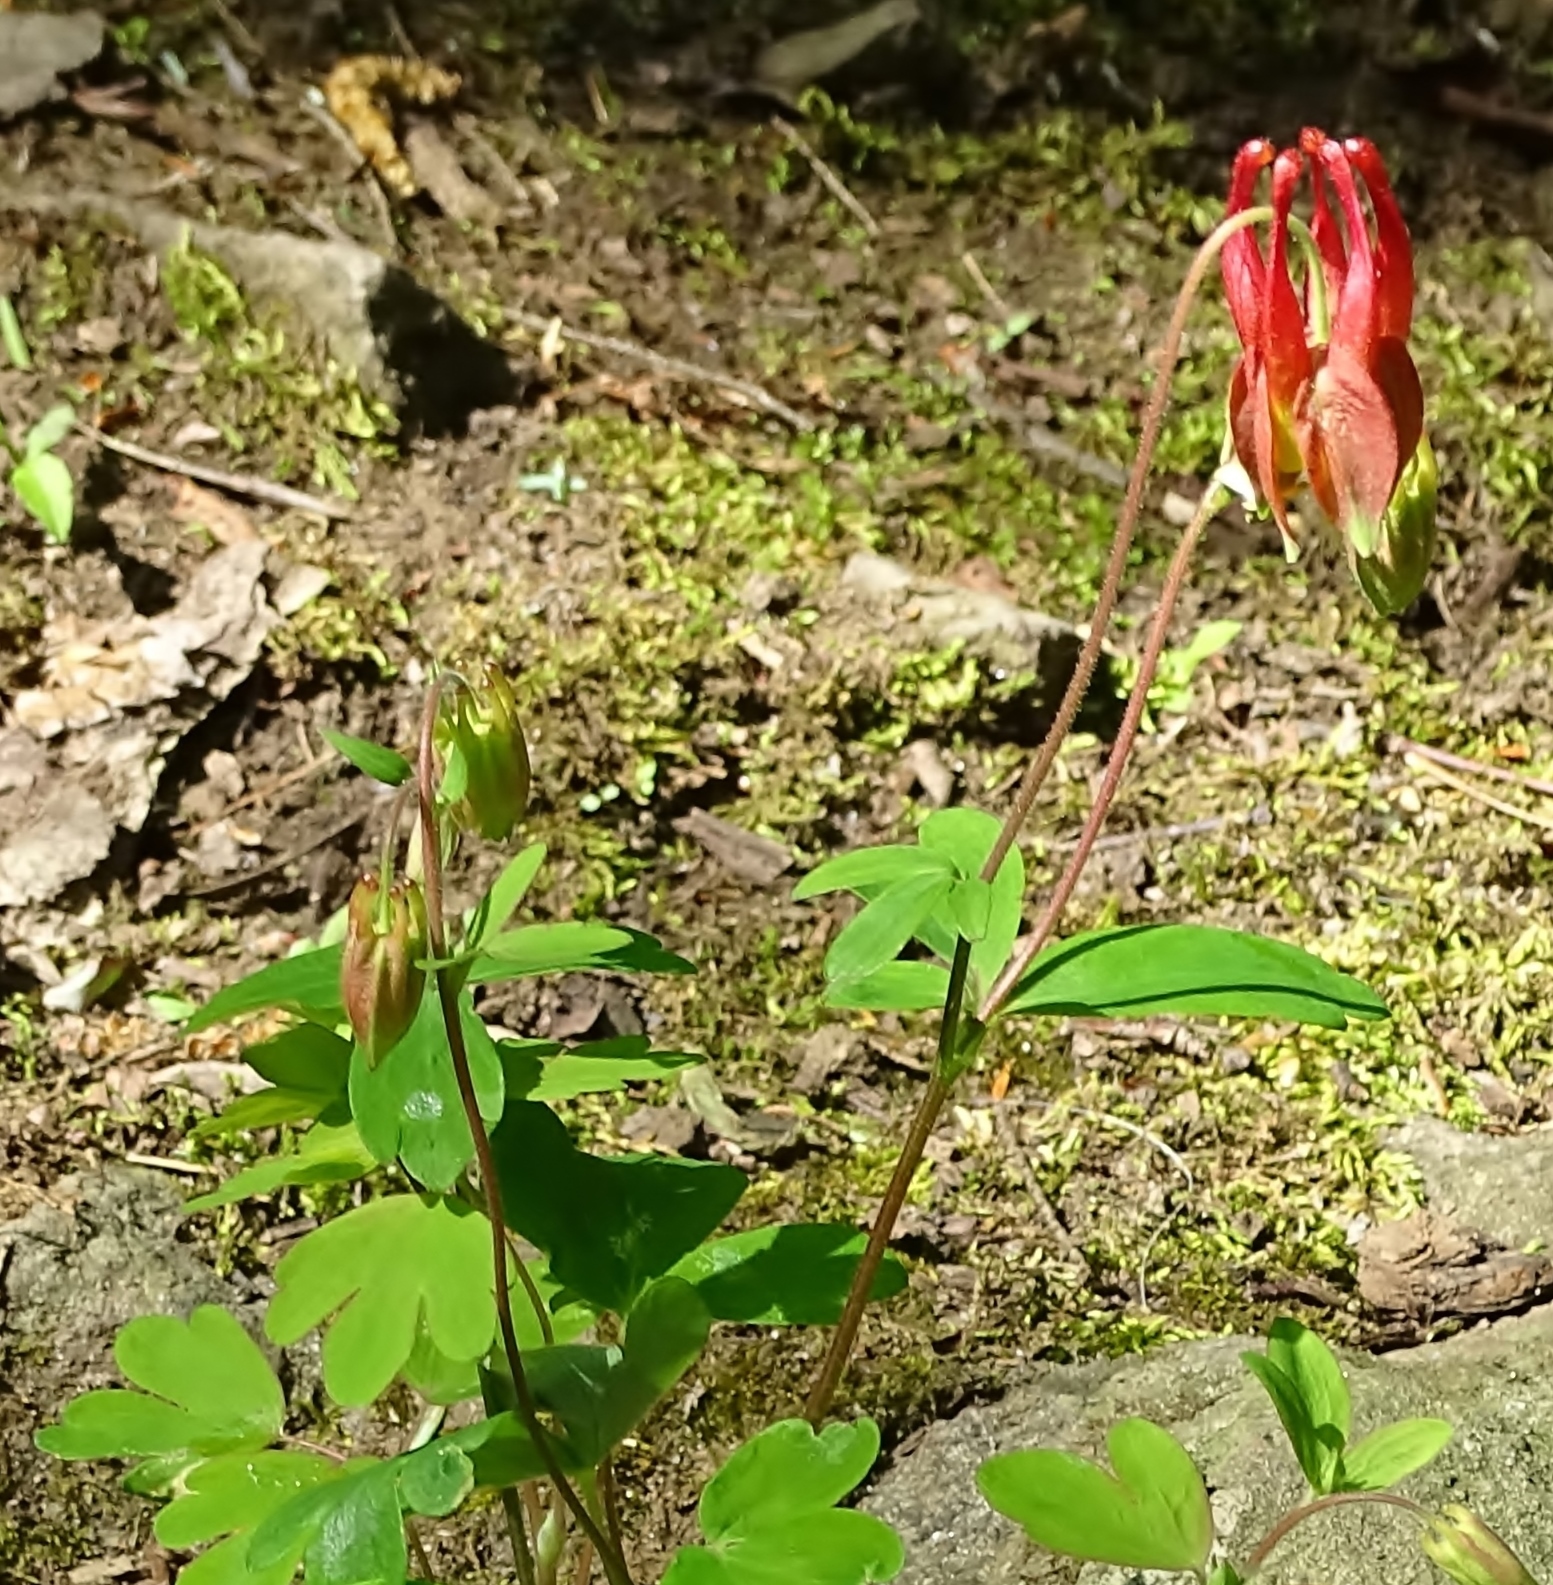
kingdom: Plantae
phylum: Tracheophyta
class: Magnoliopsida
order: Ranunculales
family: Ranunculaceae
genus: Aquilegia
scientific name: Aquilegia canadensis
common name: American columbine
